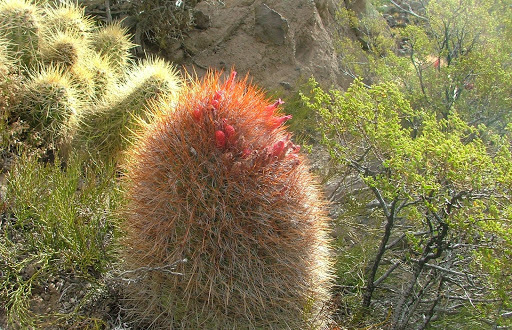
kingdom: Plantae
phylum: Tracheophyta
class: Magnoliopsida
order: Caryophyllales
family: Cactaceae
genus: Denmoza
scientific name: Denmoza rhodacantha
